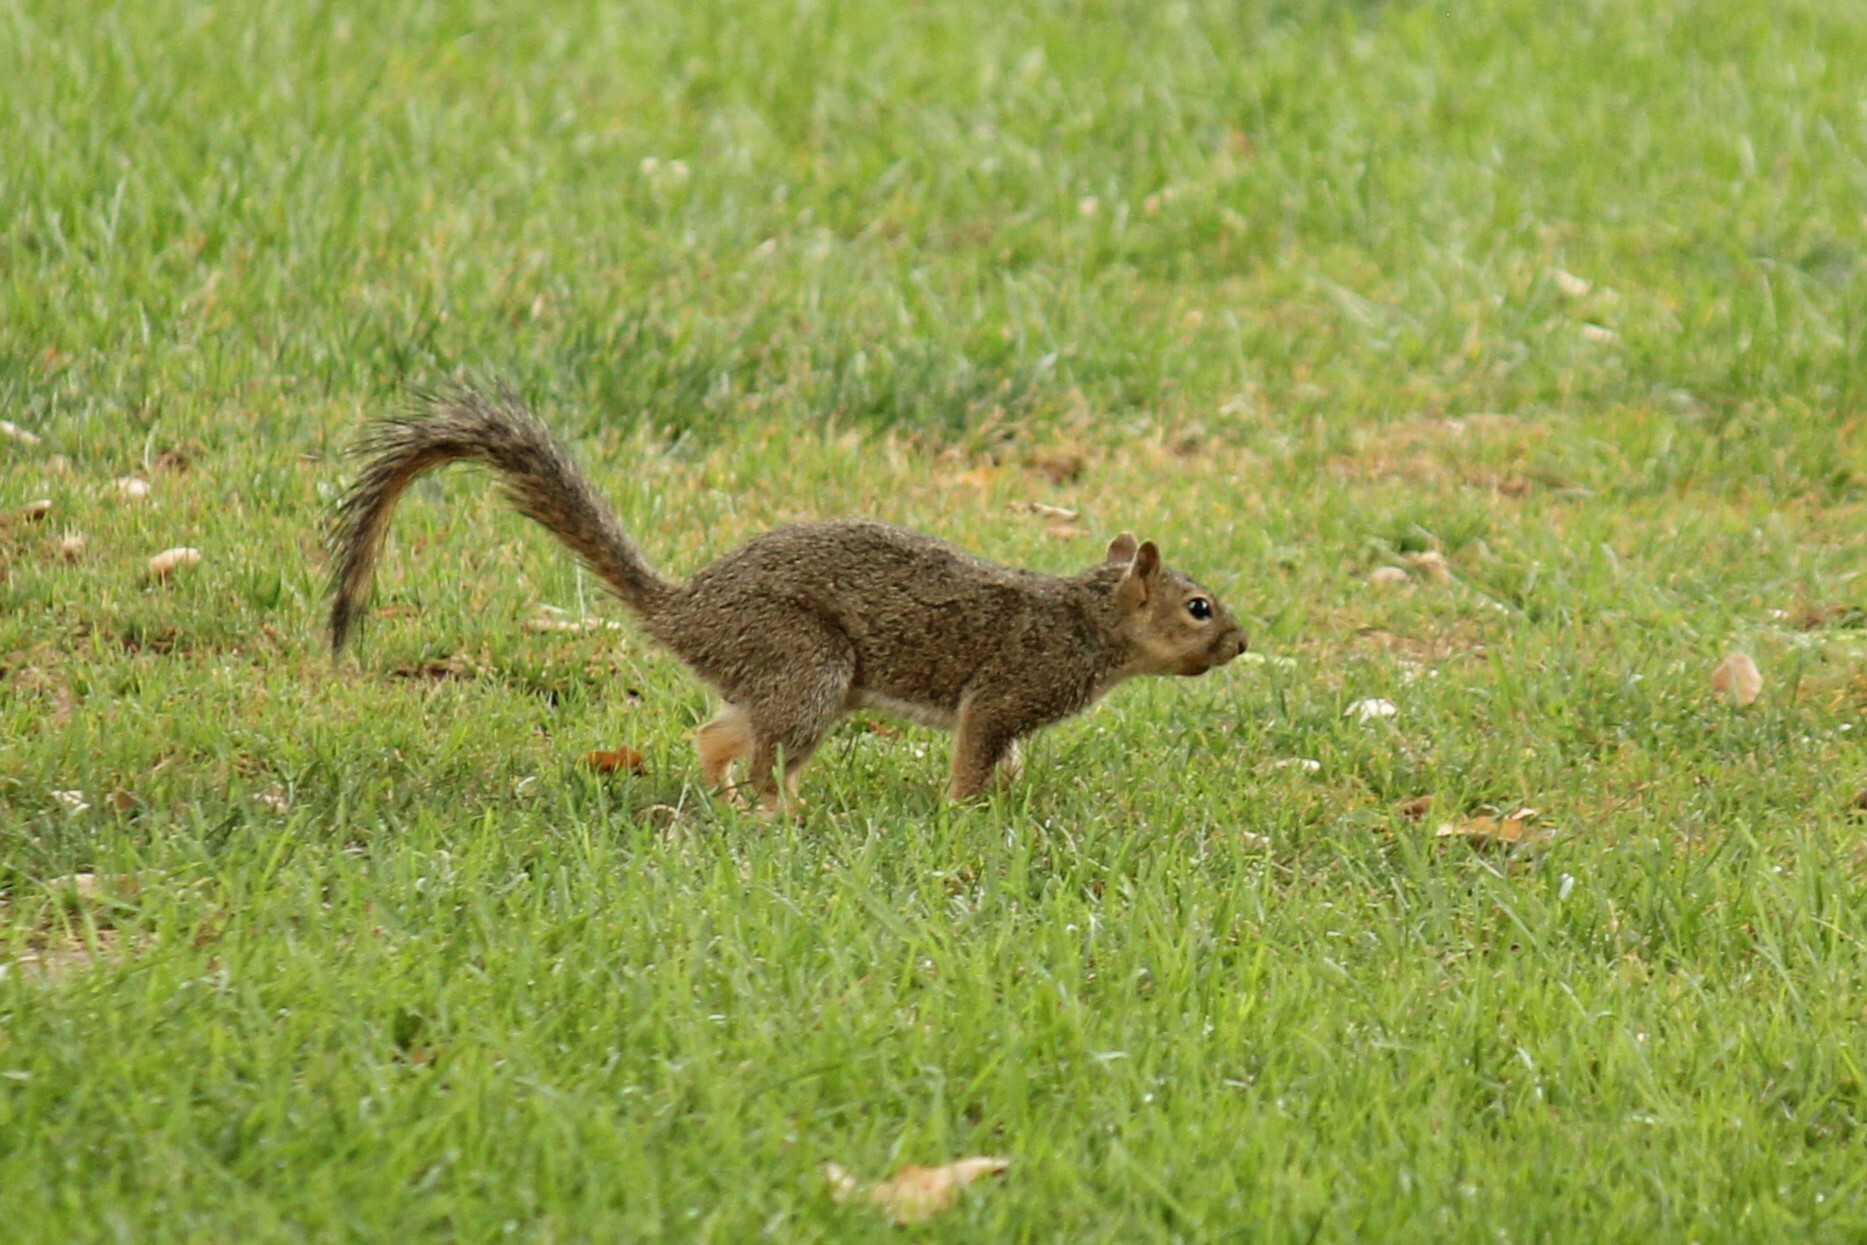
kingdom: Animalia
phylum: Chordata
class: Mammalia
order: Rodentia
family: Sciuridae
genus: Sciurus
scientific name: Sciurus niger
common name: Fox squirrel
